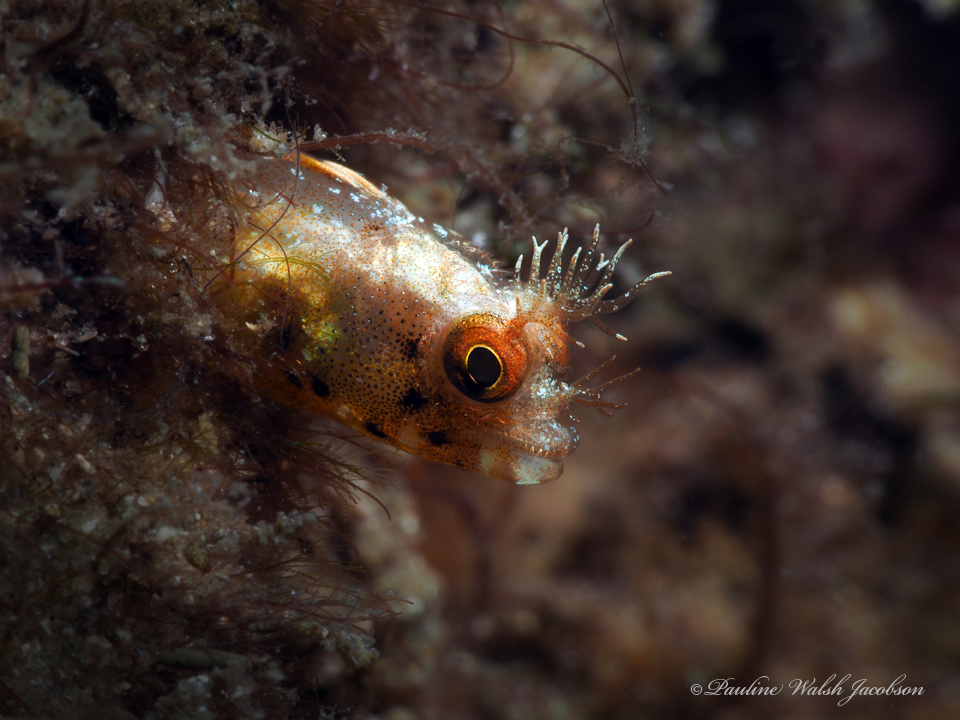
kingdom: Animalia
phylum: Chordata
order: Perciformes
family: Chaenopsidae
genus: Acanthemblemaria
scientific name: Acanthemblemaria aspera
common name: Roughhead blenny
